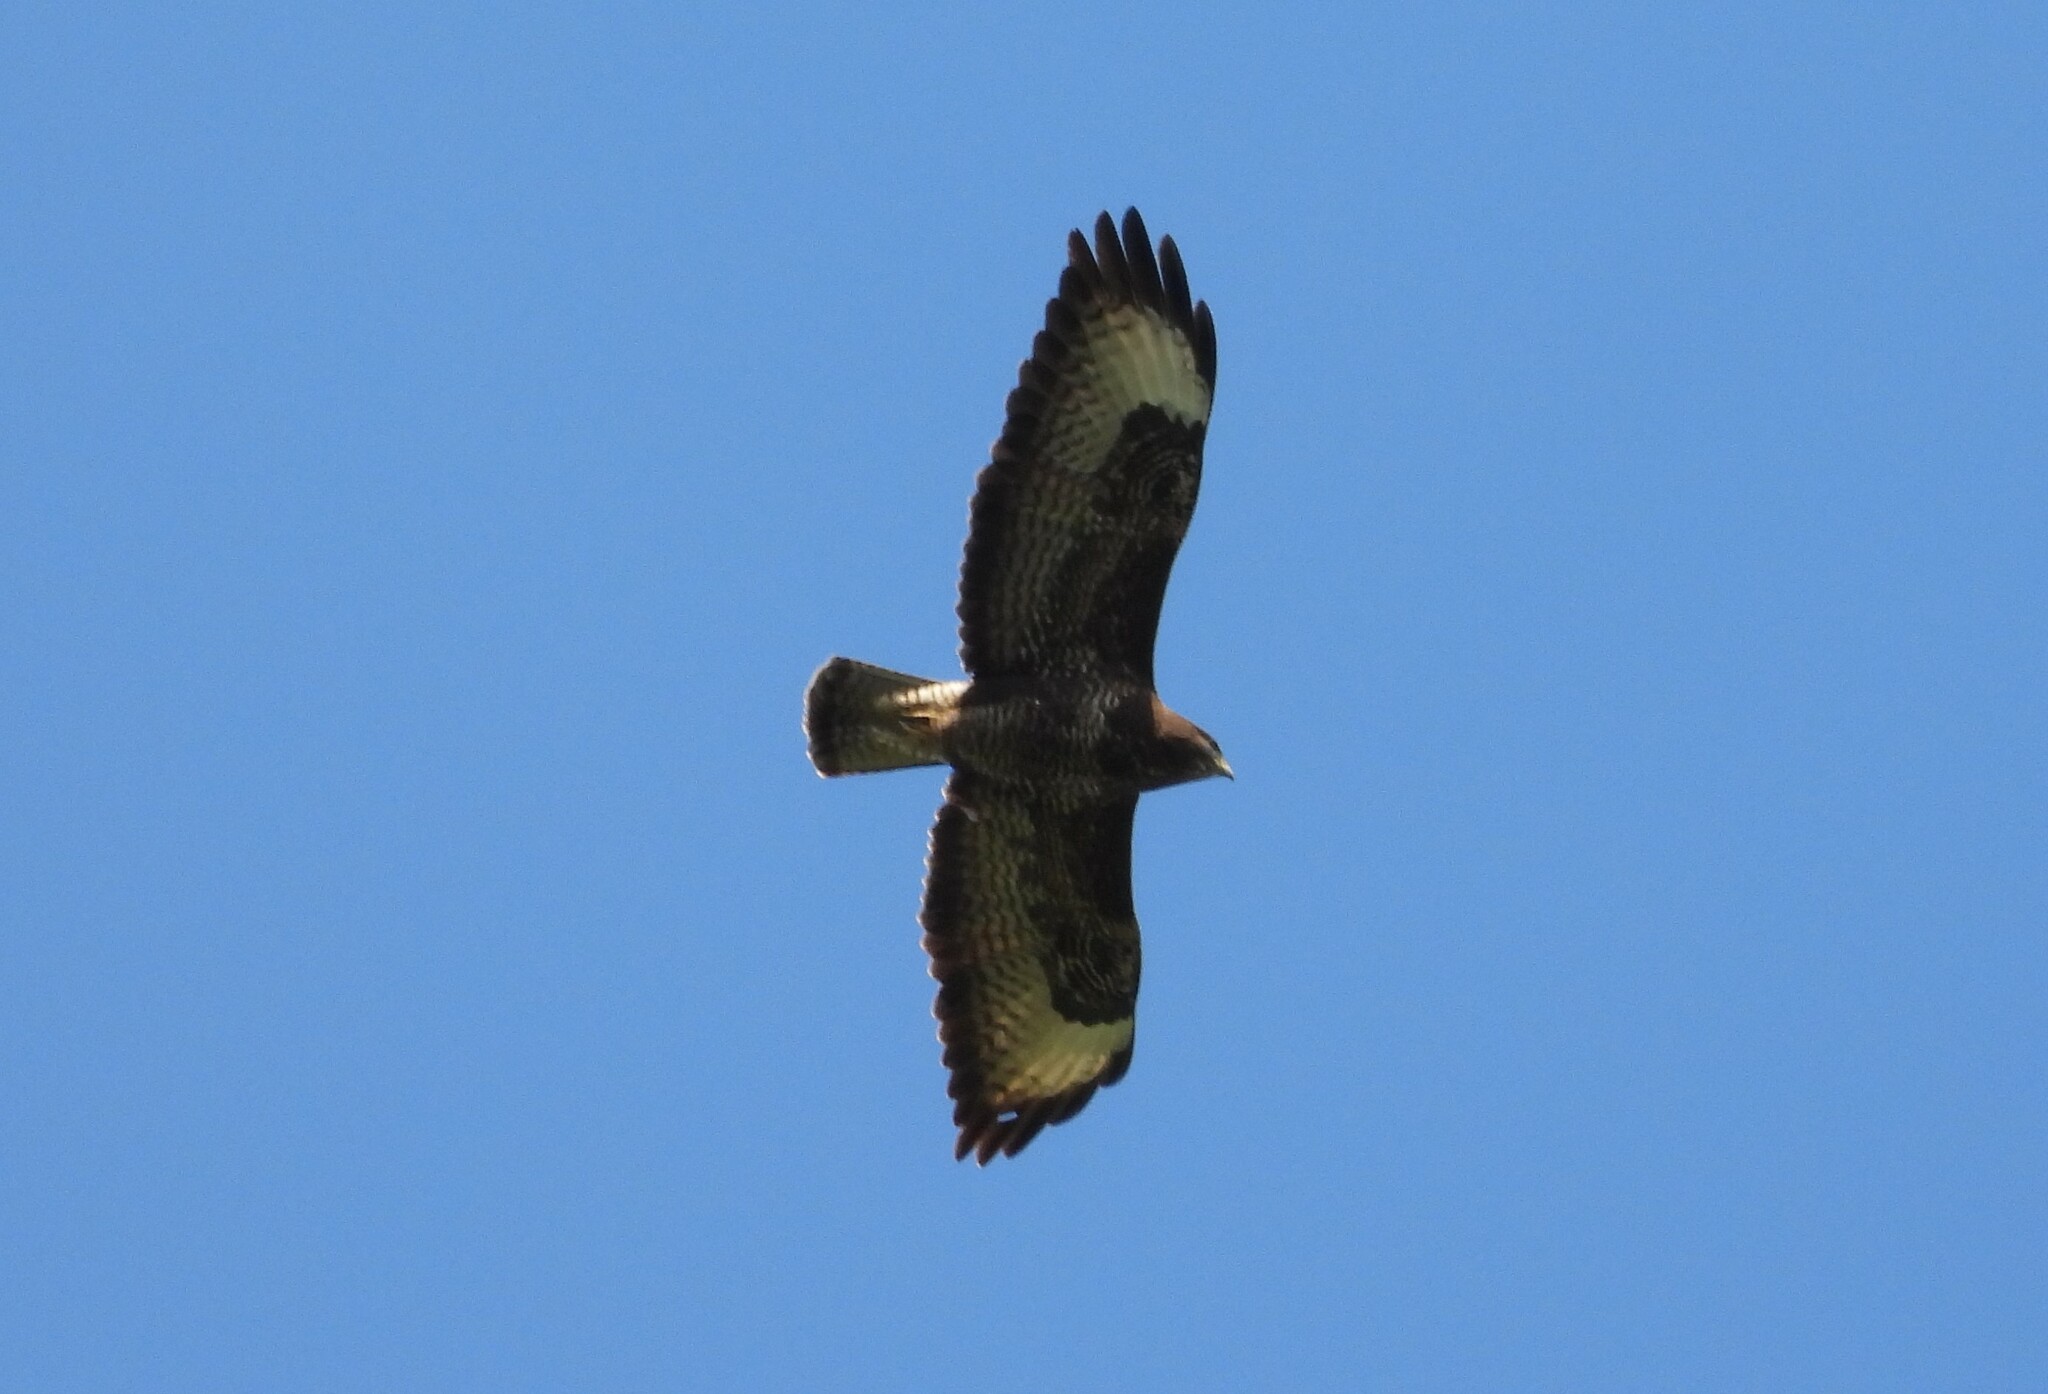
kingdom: Animalia
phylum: Chordata
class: Aves
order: Accipitriformes
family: Accipitridae
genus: Buteo
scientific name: Buteo buteo
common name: Common buzzard
